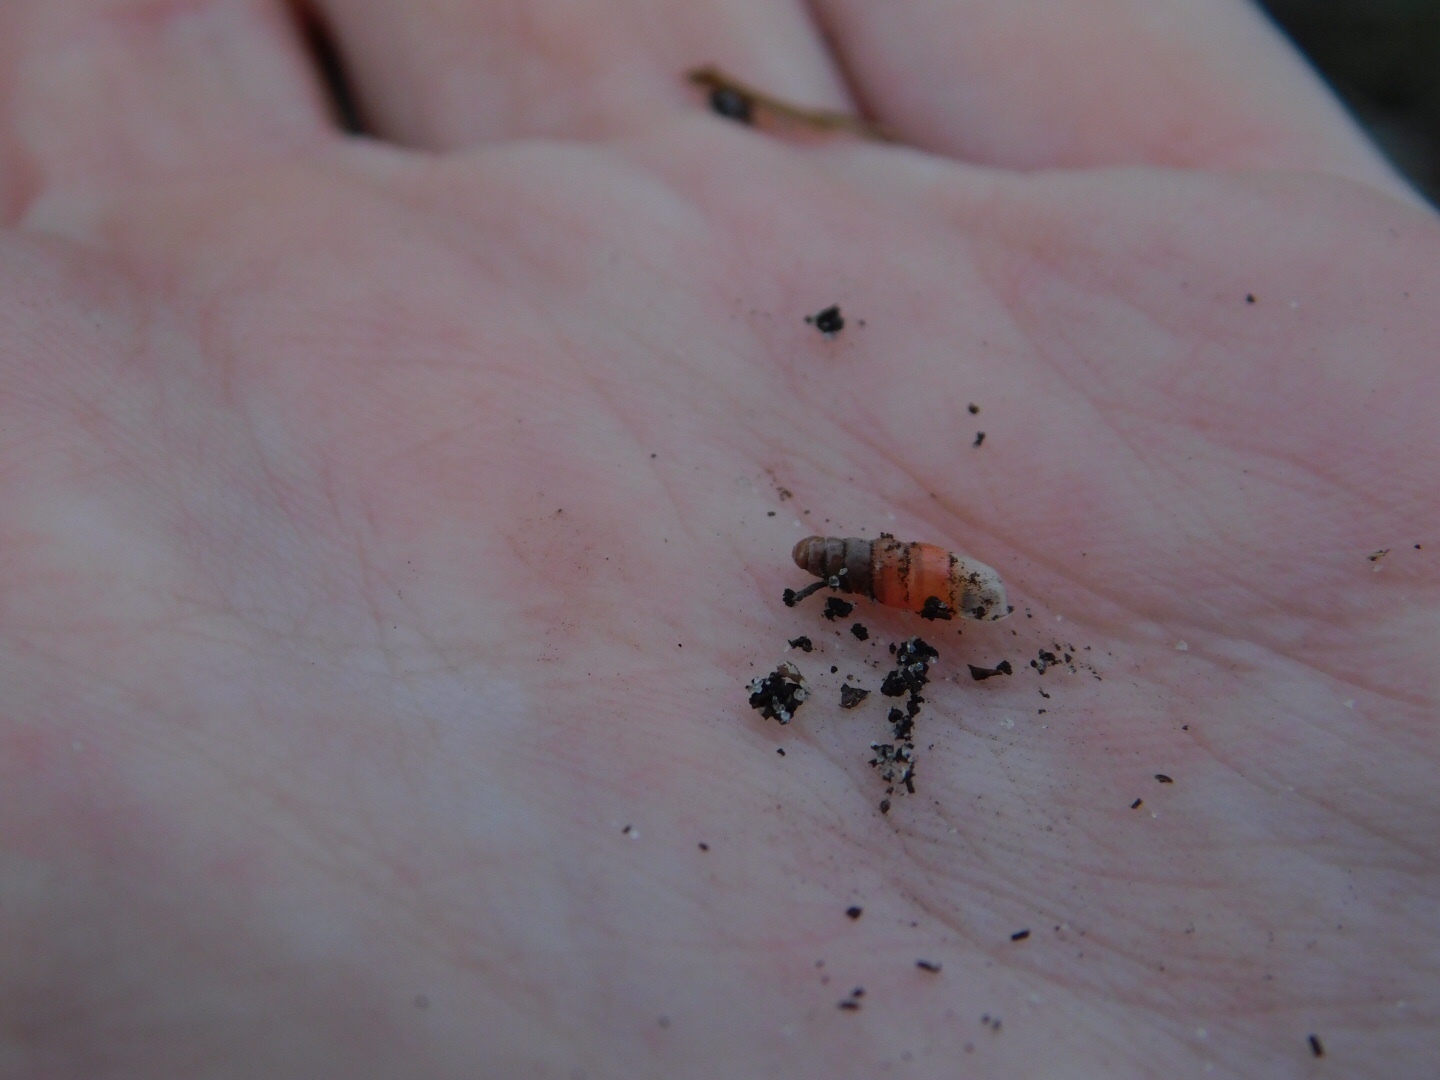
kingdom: Animalia
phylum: Mollusca
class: Gastropoda
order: Stylommatophora
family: Streptaxidae
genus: Gulella
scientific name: Gulella bicolor
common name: Snail
